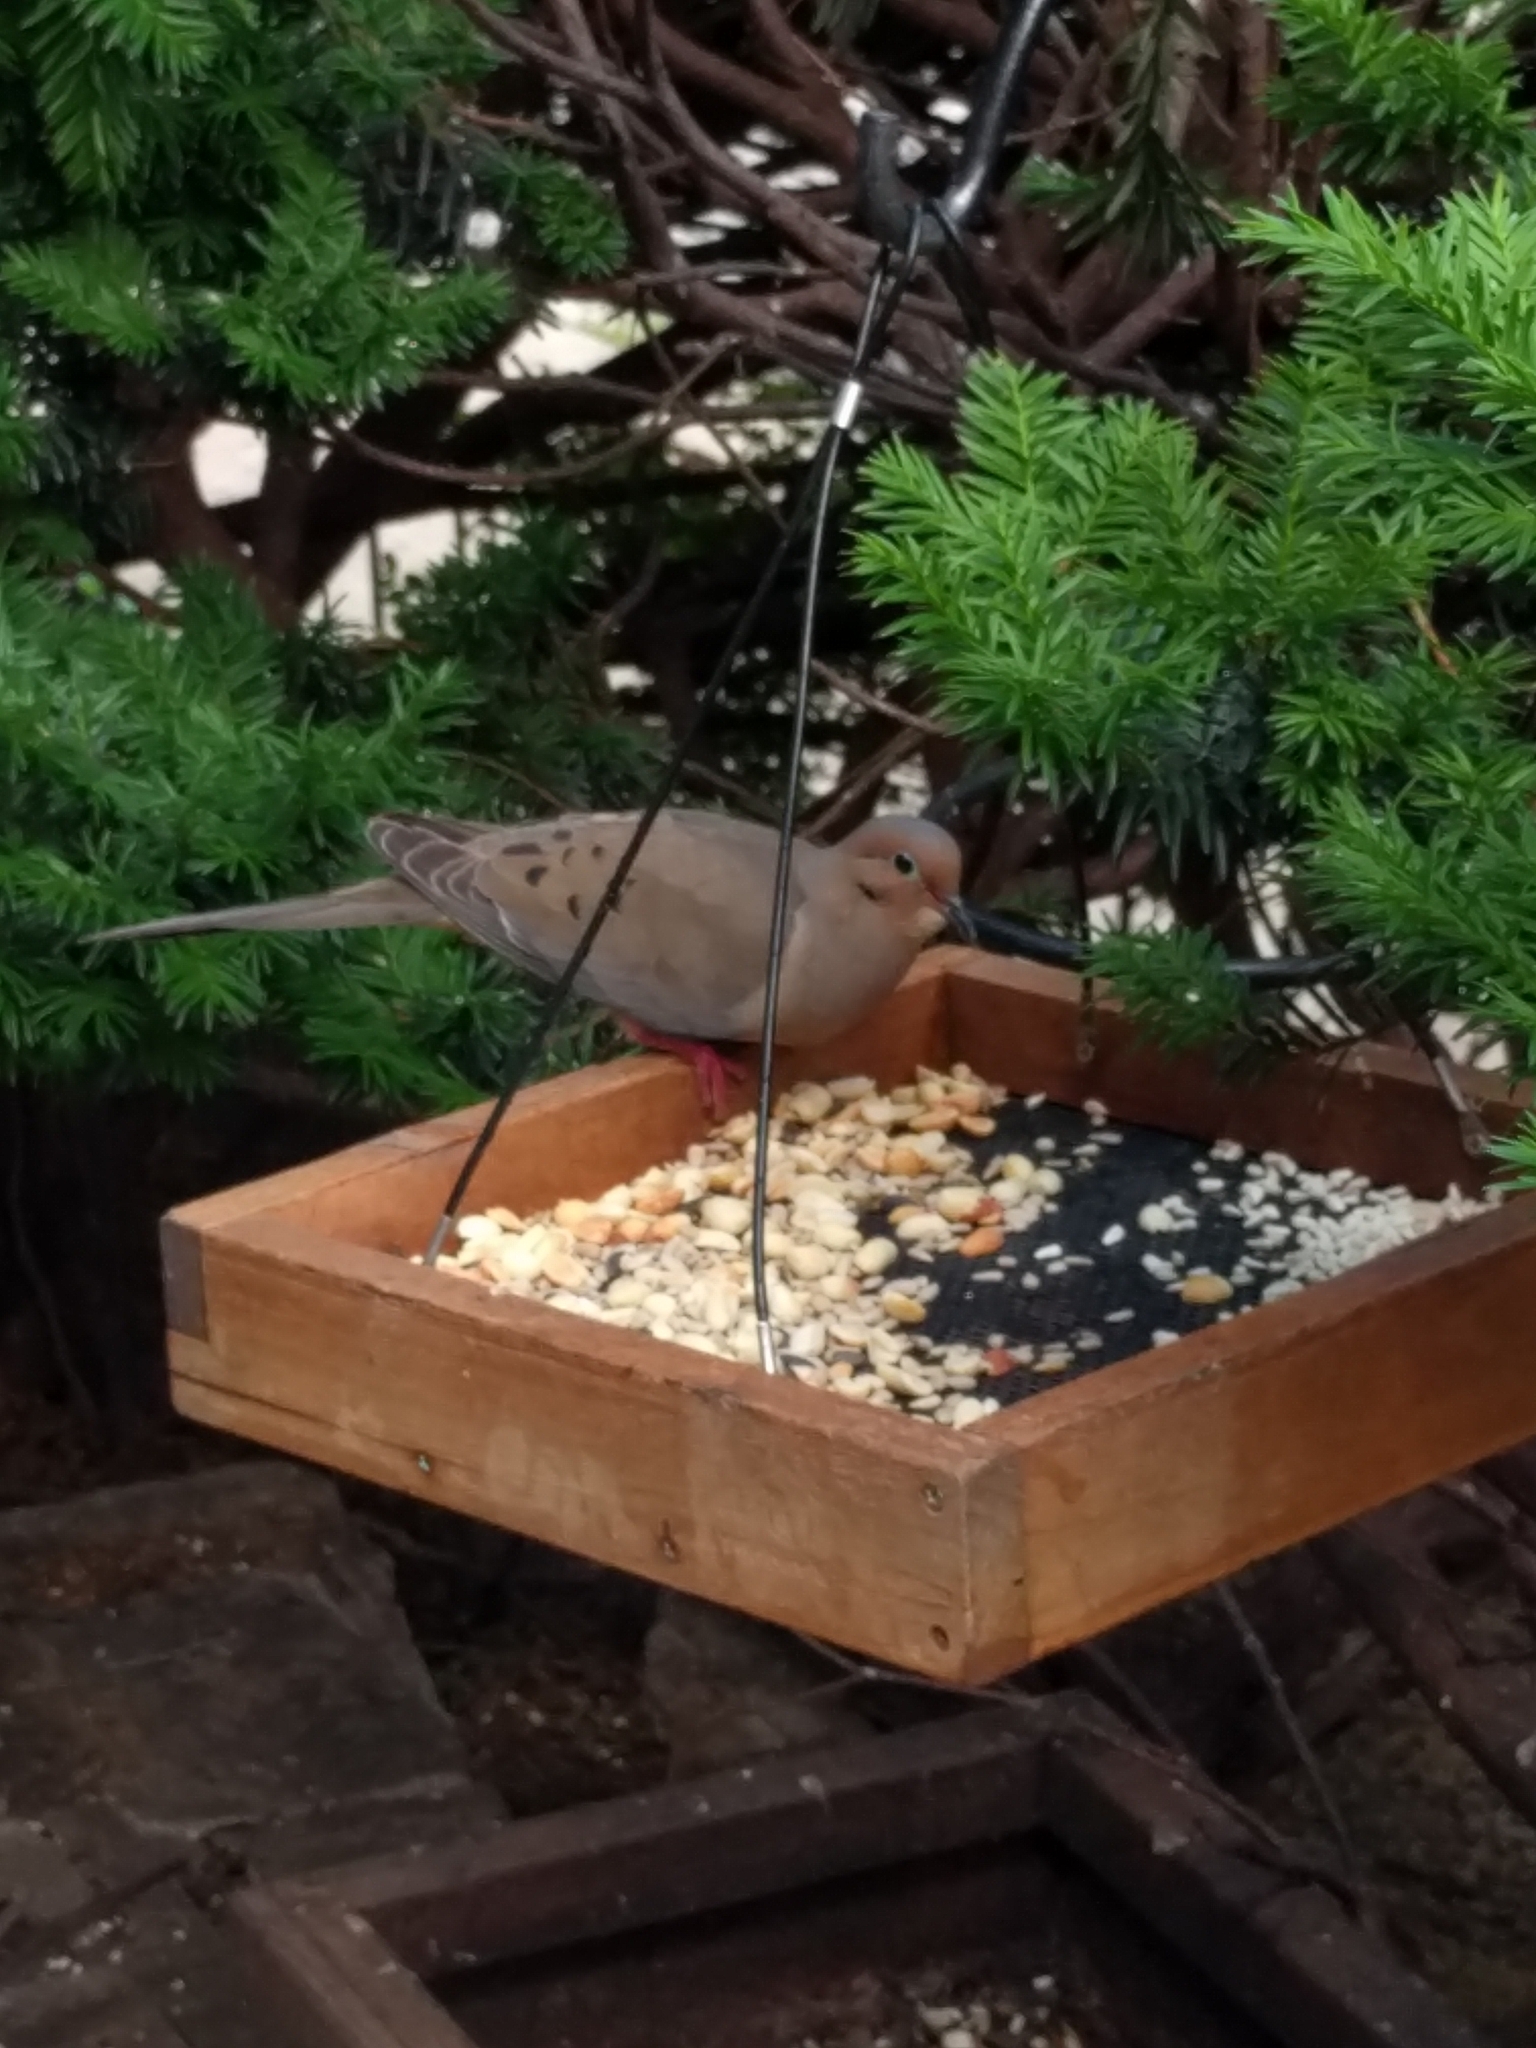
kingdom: Animalia
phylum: Chordata
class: Aves
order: Columbiformes
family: Columbidae
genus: Zenaida
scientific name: Zenaida macroura
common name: Mourning dove
